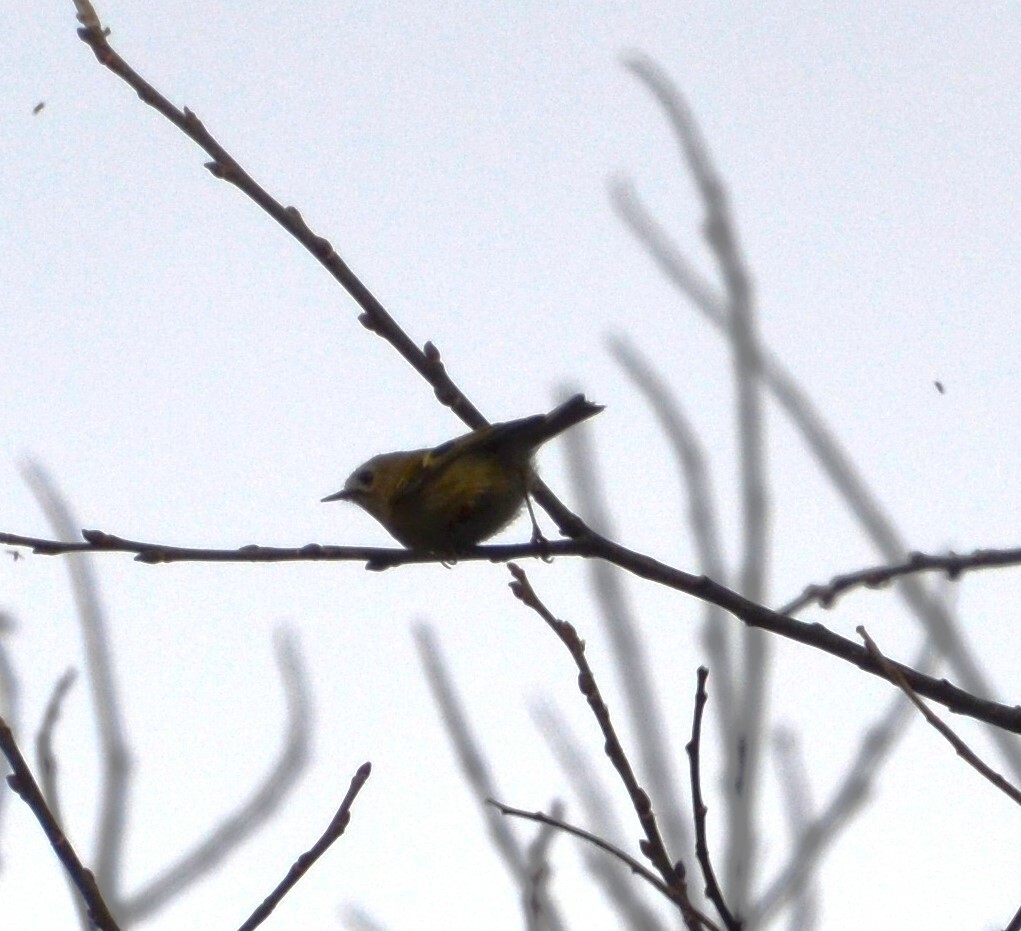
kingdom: Animalia
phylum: Chordata
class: Aves
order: Passeriformes
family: Regulidae
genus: Regulus
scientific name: Regulus regulus
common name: Goldcrest
